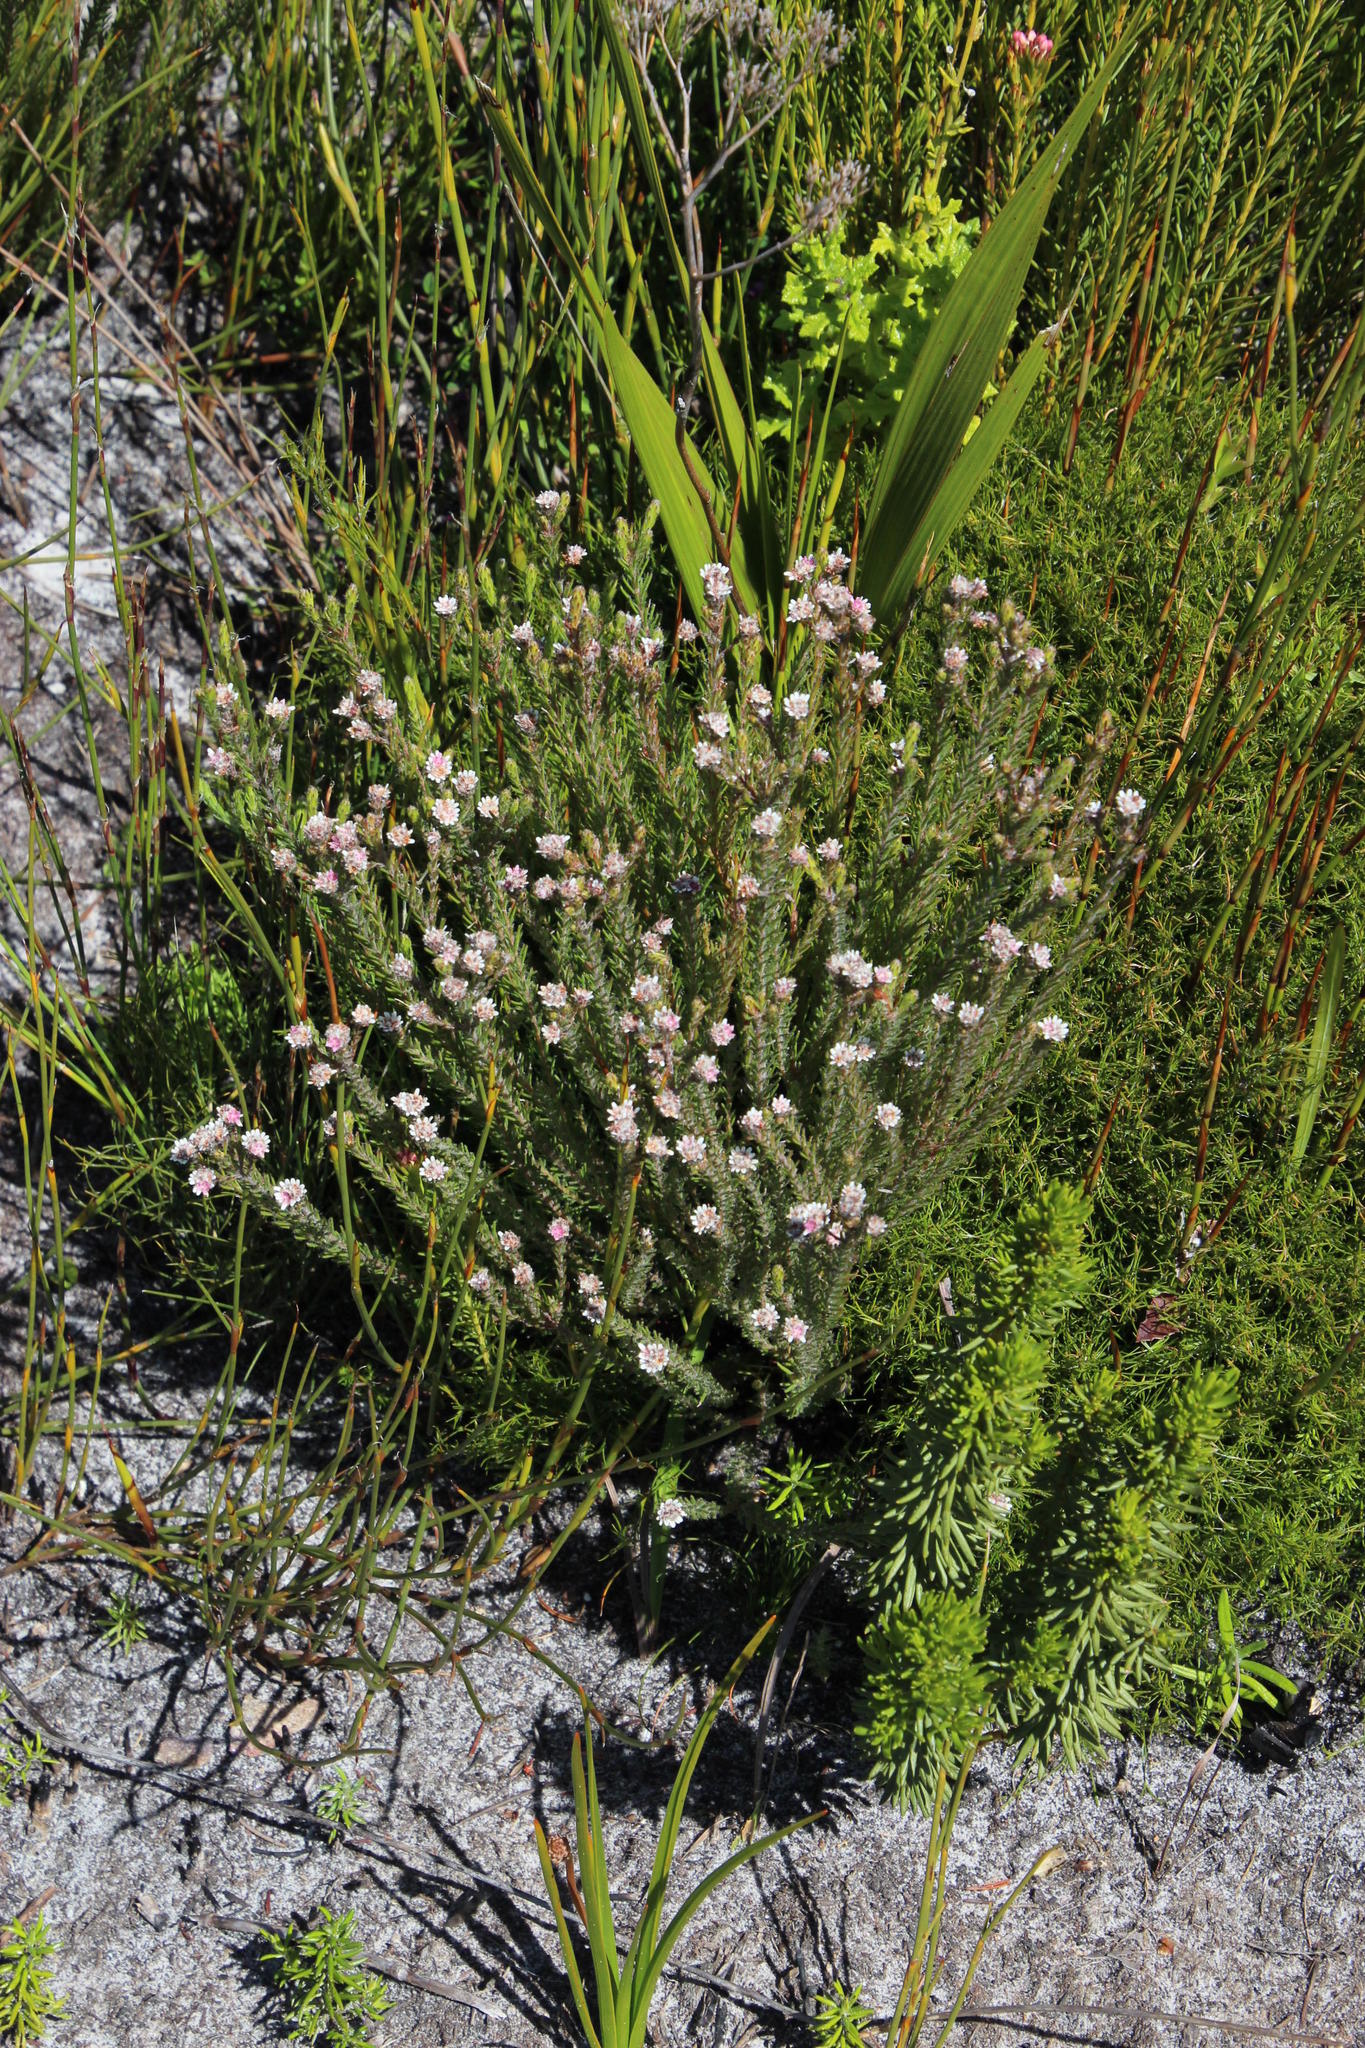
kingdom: Plantae
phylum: Tracheophyta
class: Magnoliopsida
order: Bruniales
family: Bruniaceae
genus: Staavia
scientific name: Staavia radiata
